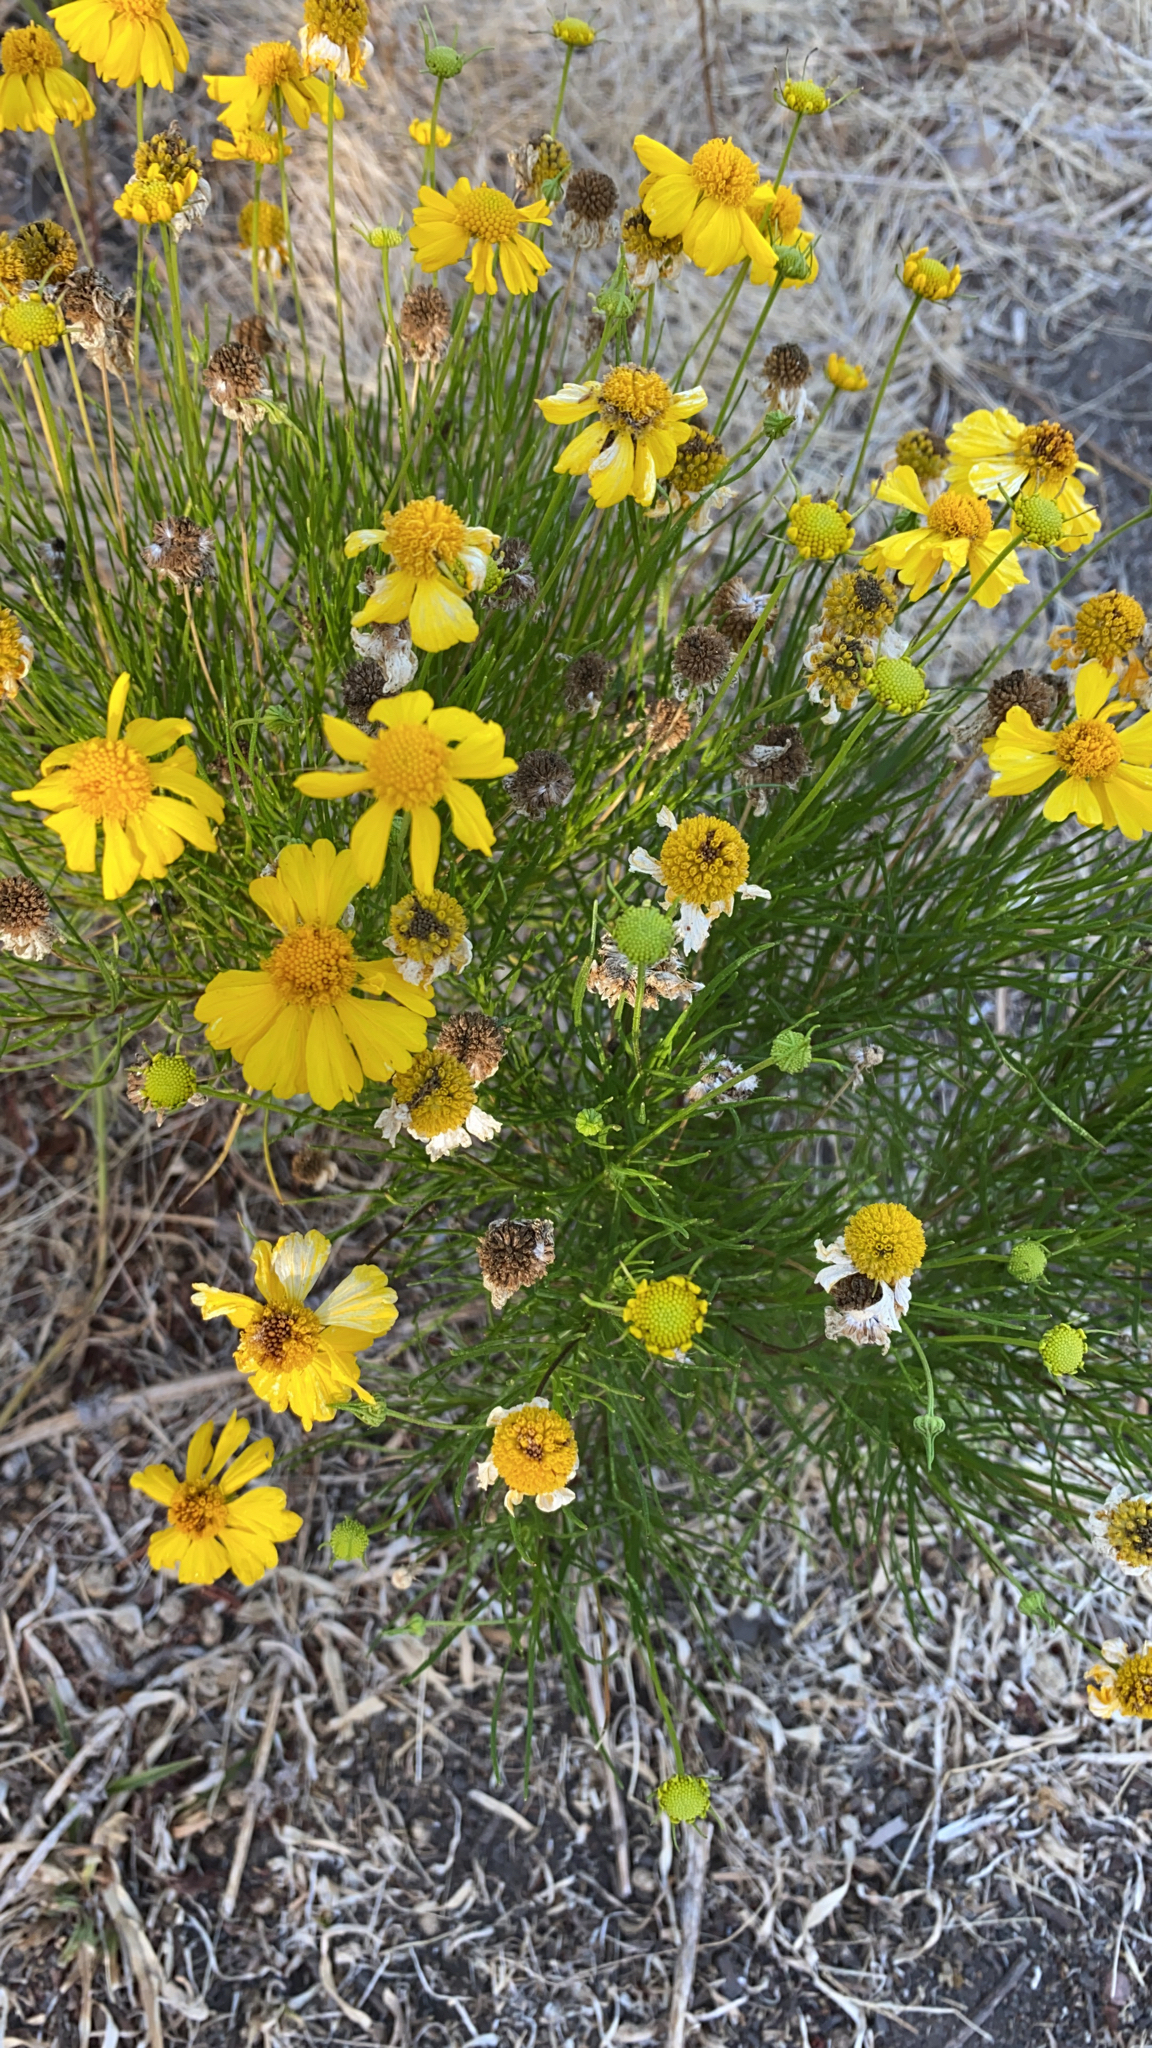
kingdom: Plantae
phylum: Tracheophyta
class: Magnoliopsida
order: Asterales
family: Asteraceae
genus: Helenium
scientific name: Helenium amarum
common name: Bitter sneezeweed
